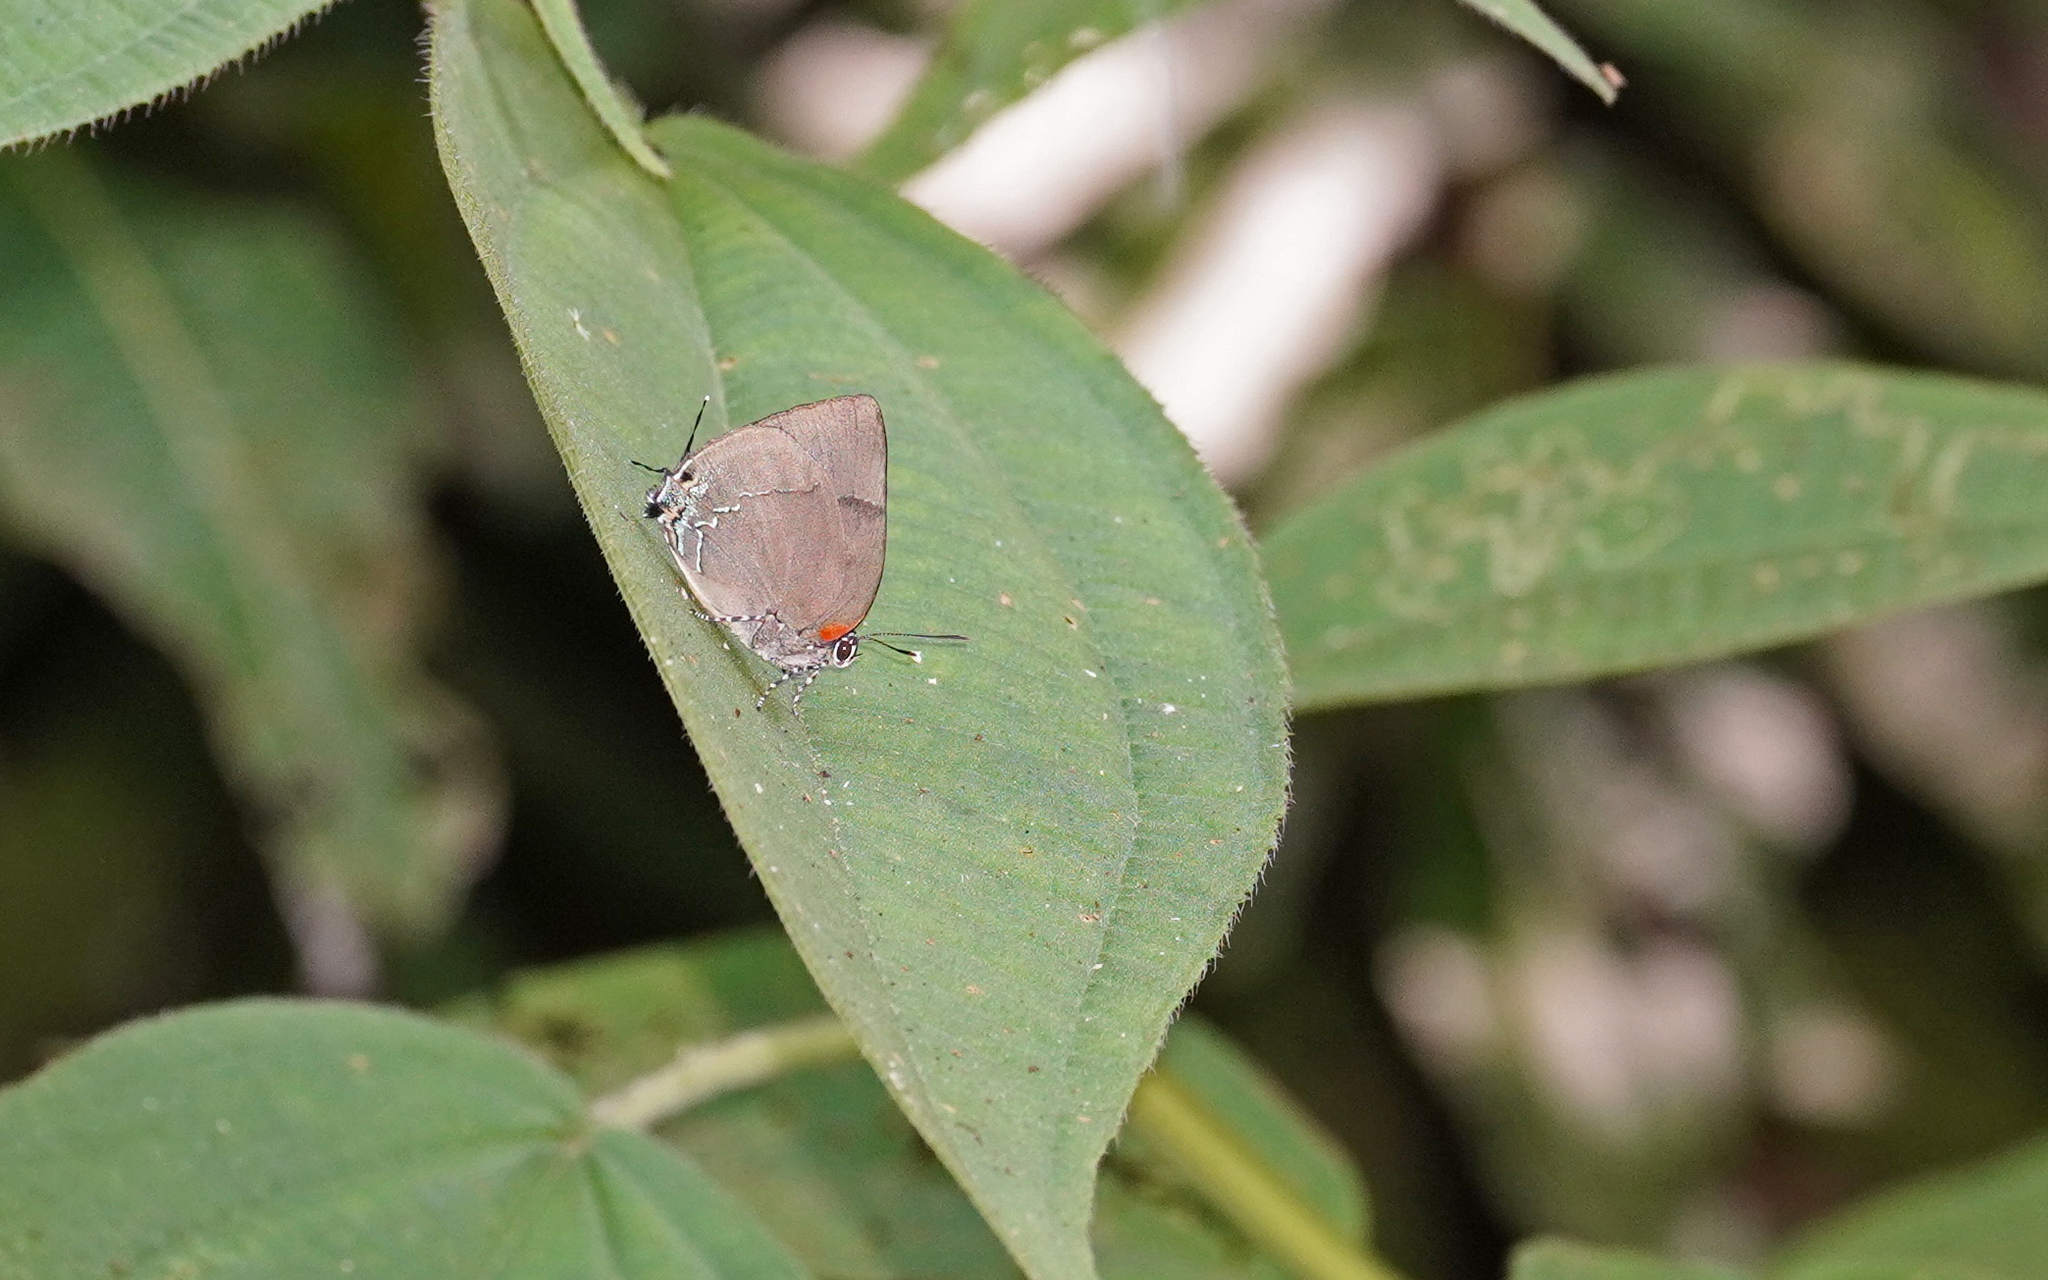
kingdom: Animalia
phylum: Arthropoda
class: Insecta
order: Lepidoptera
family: Lycaenidae
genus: Panthiades
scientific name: Panthiades bitias
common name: Bitias hairstreak
